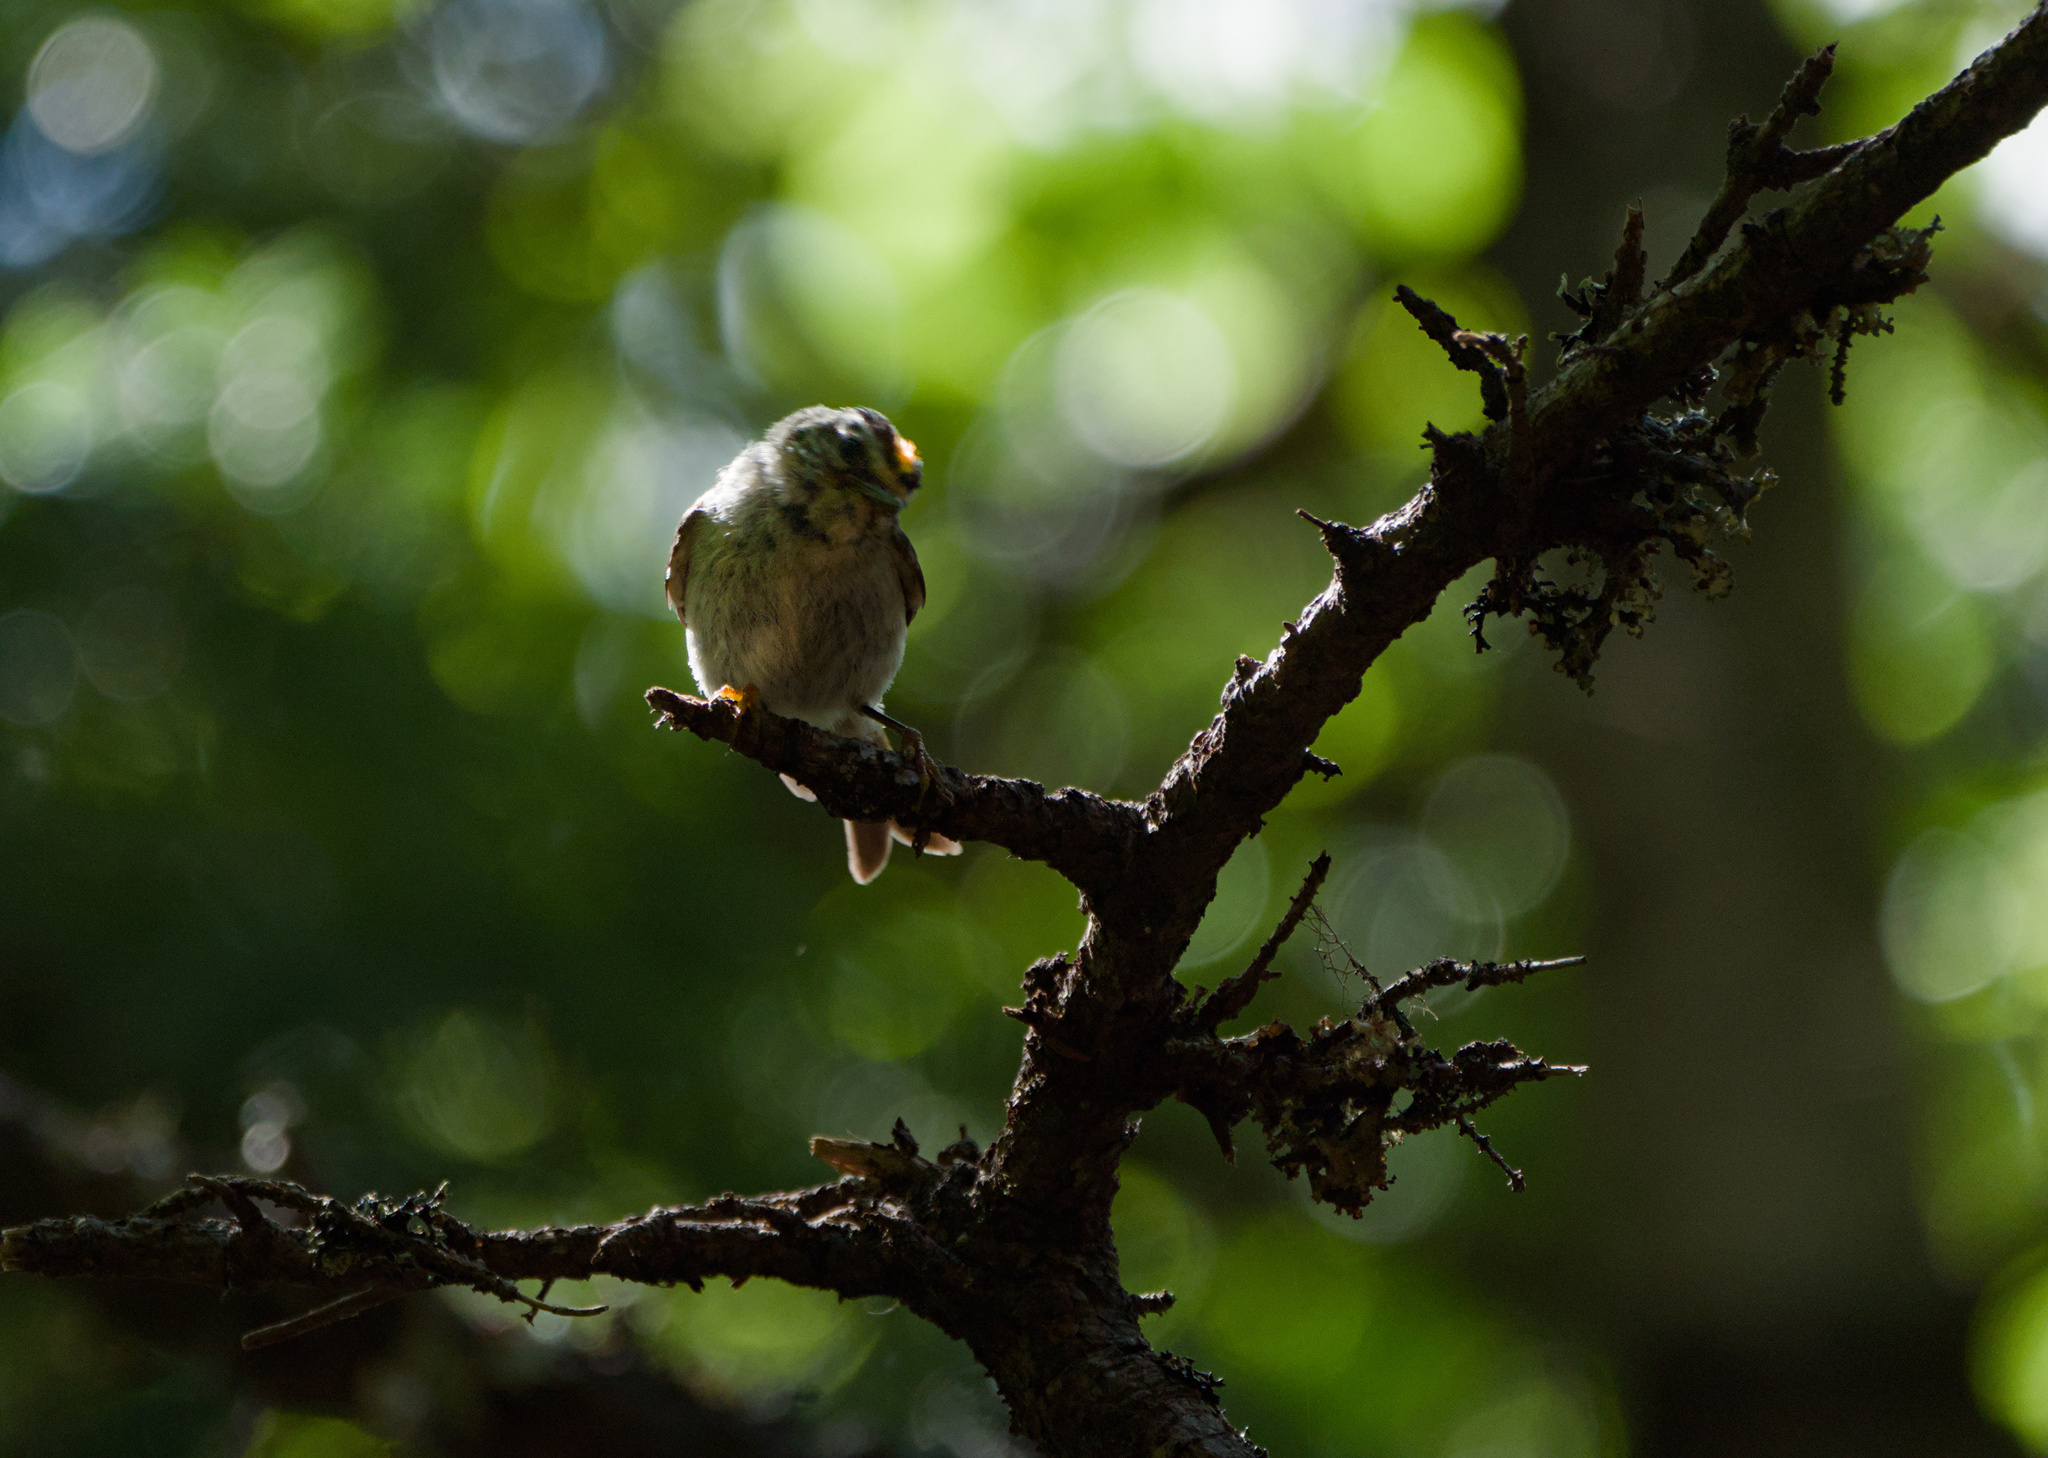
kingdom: Animalia
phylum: Chordata
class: Aves
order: Passeriformes
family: Regulidae
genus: Regulus
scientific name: Regulus satrapa
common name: Golden-crowned kinglet
